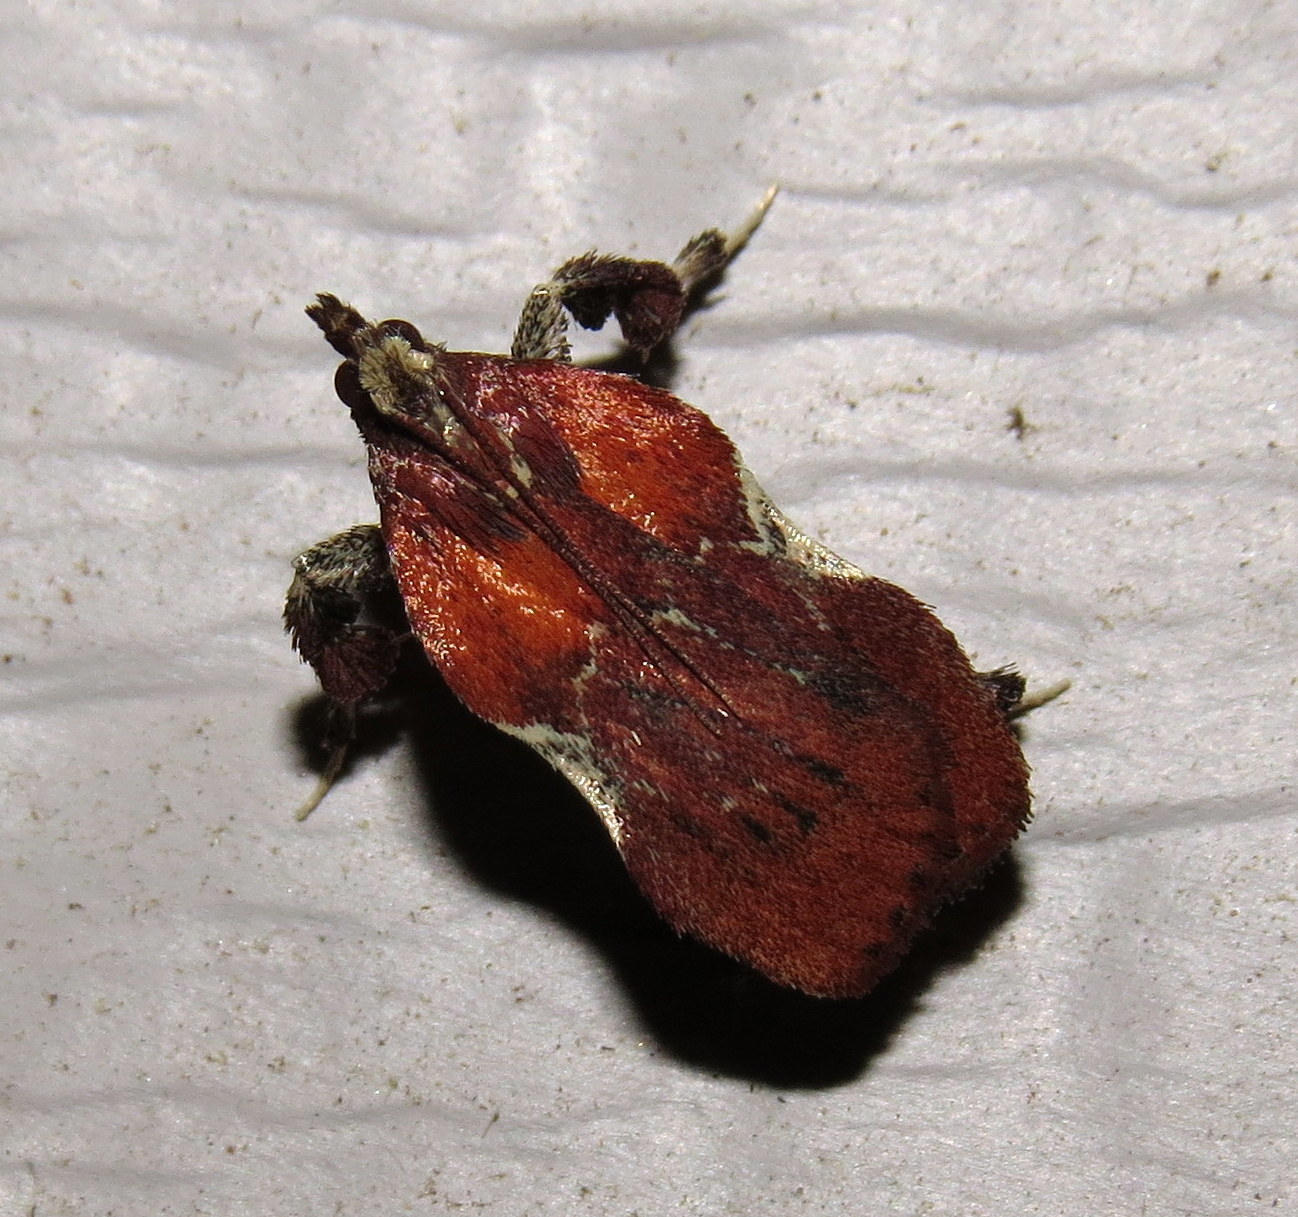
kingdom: Animalia
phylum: Arthropoda
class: Insecta
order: Lepidoptera
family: Pyralidae
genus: Galasa
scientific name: Galasa nigrinodis
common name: Boxwood leaftier moth
